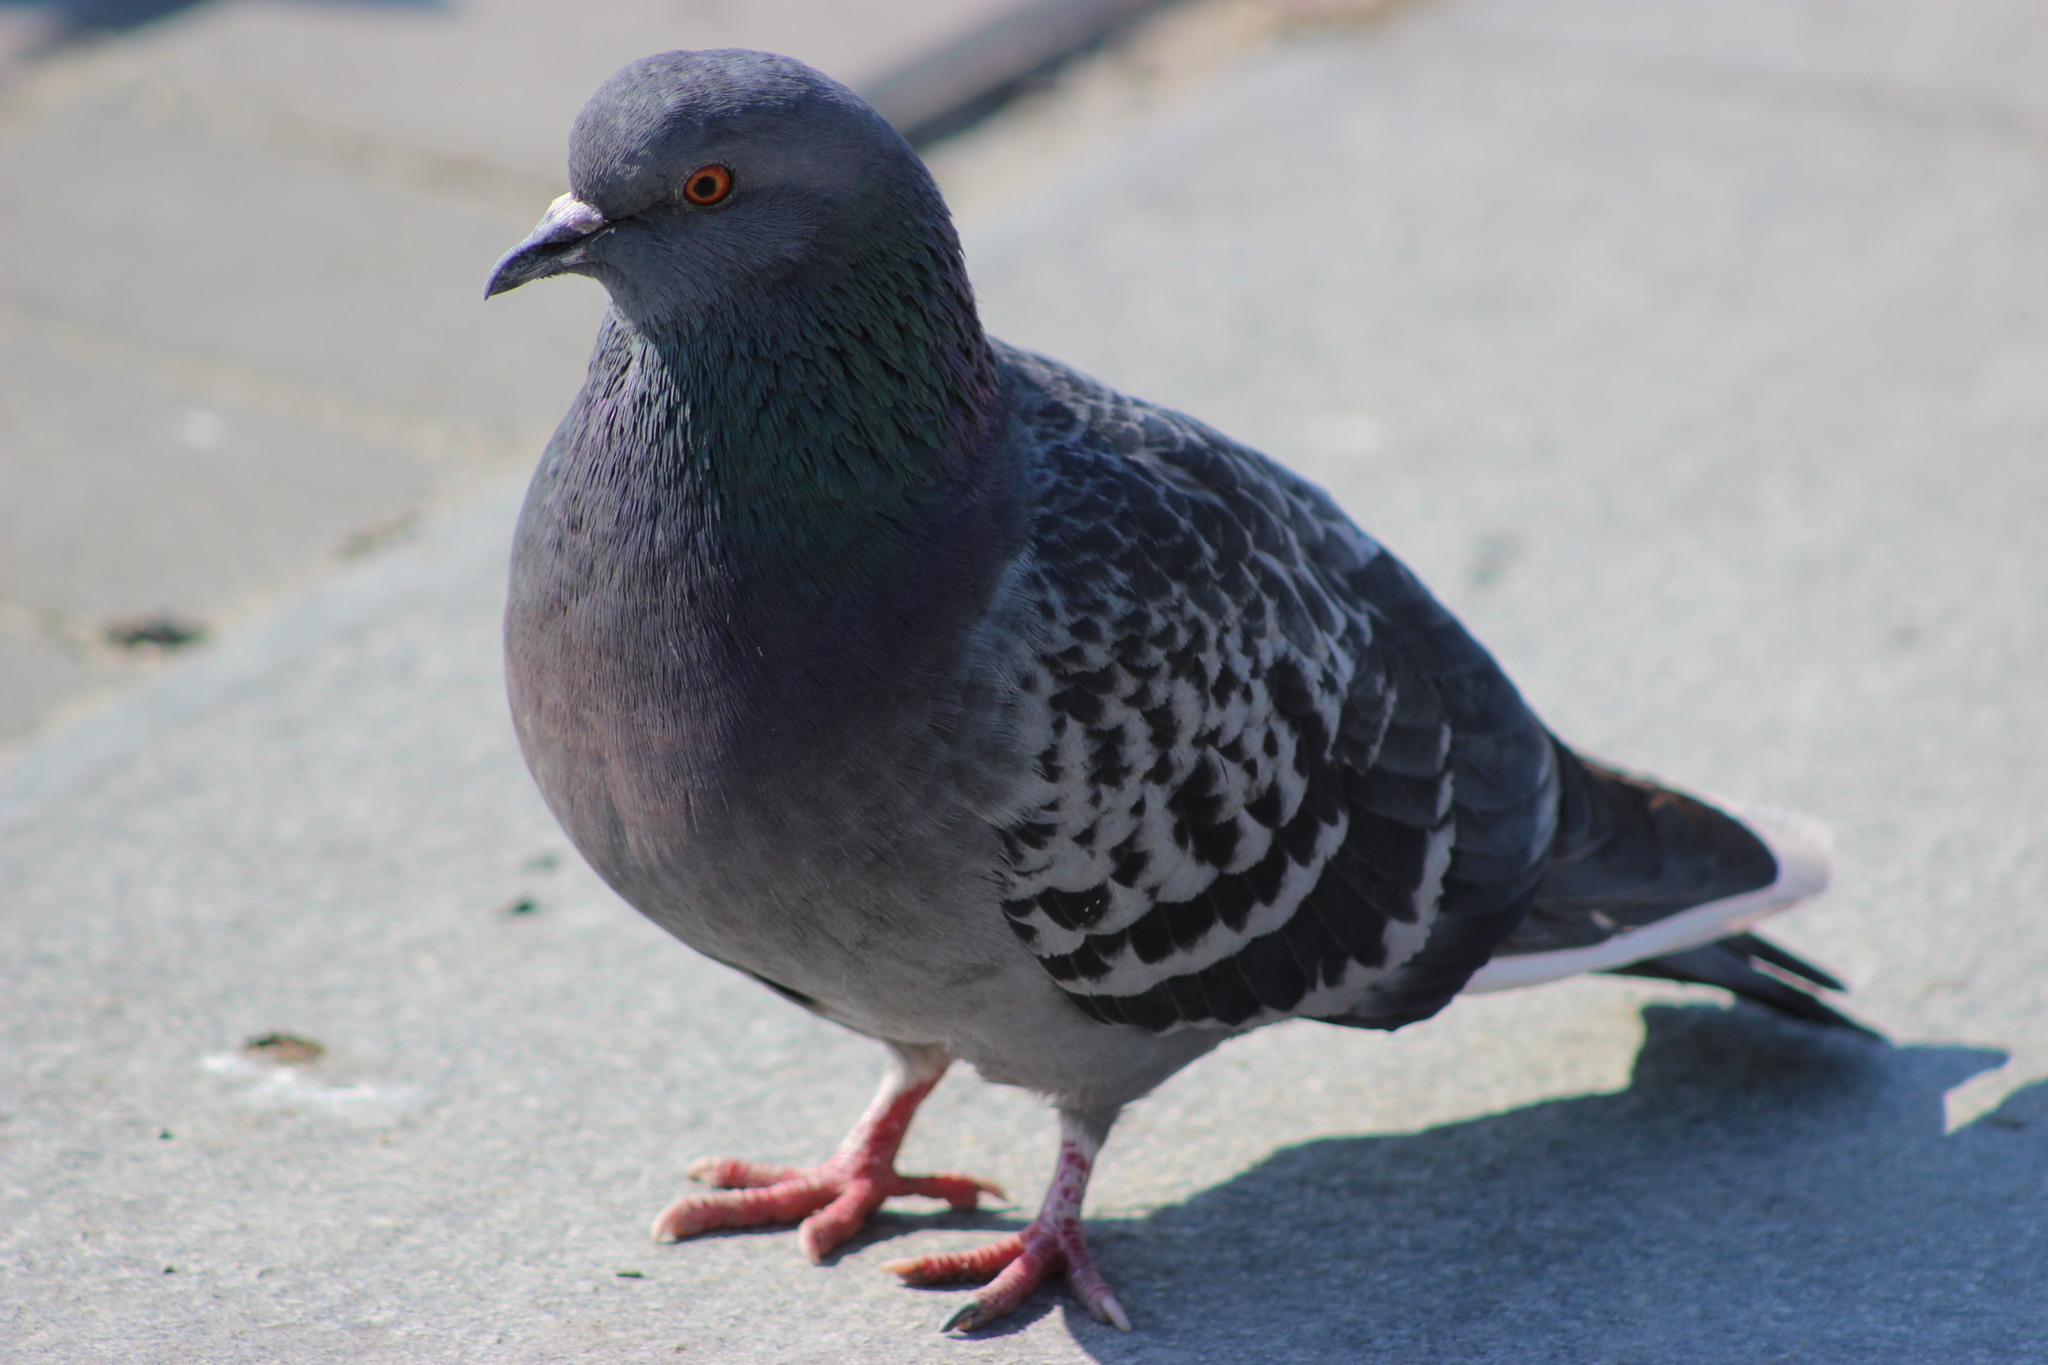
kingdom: Animalia
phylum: Chordata
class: Aves
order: Columbiformes
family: Columbidae
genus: Columba
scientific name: Columba livia
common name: Rock pigeon
